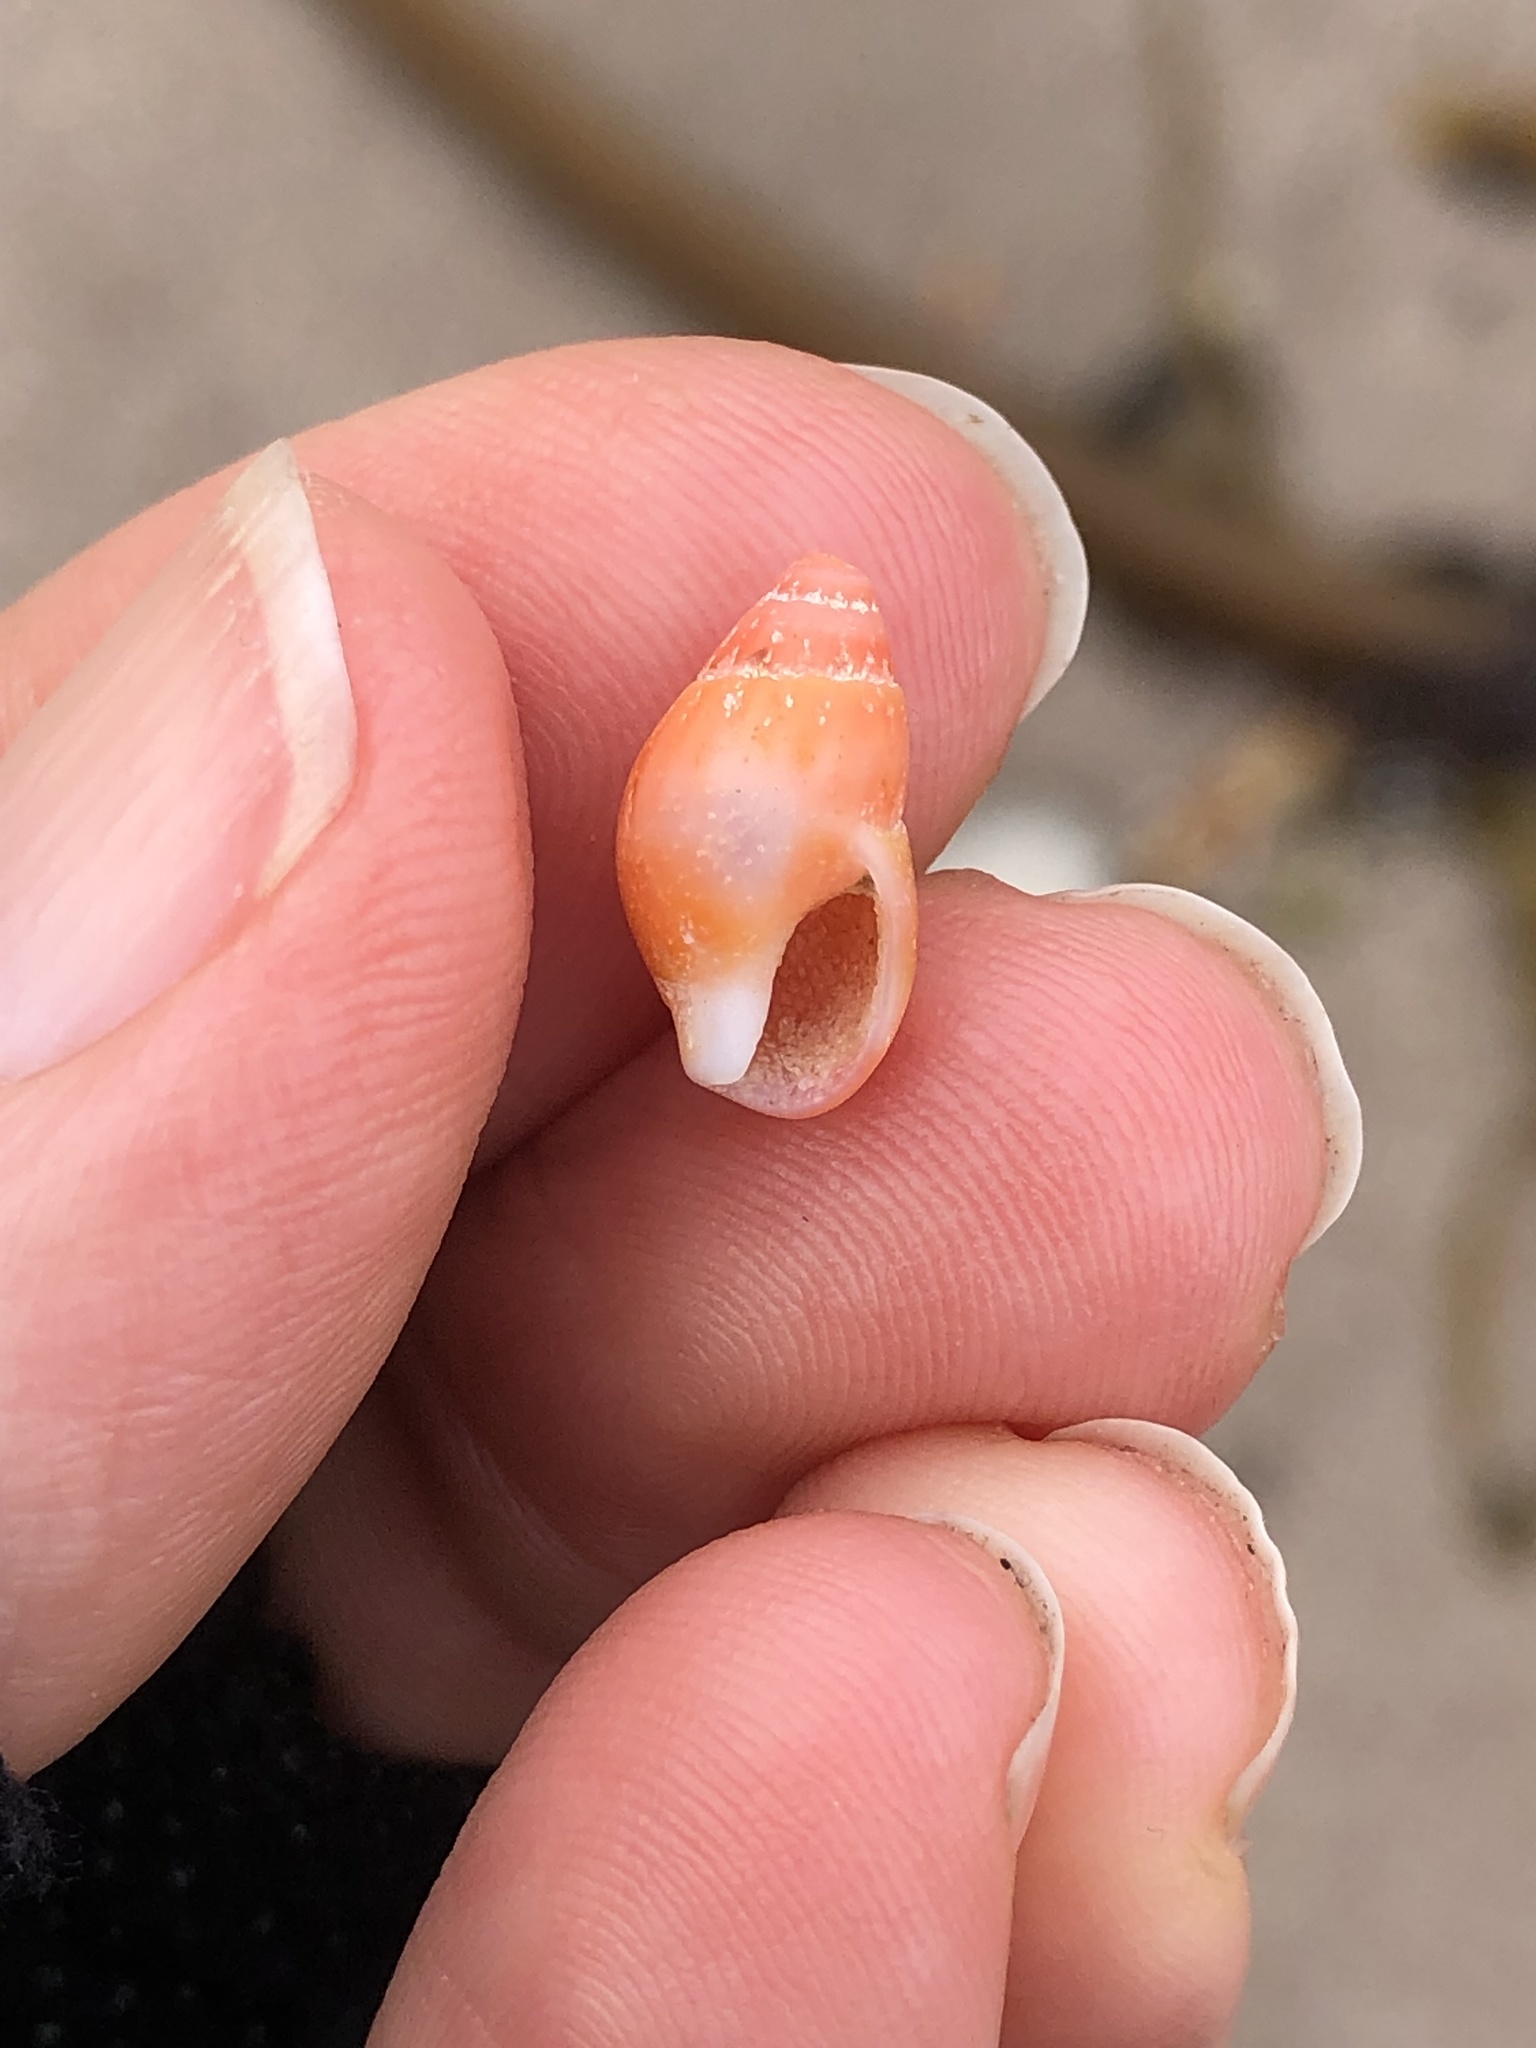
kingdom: Animalia
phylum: Mollusca
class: Gastropoda
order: Neogastropoda
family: Columbellidae
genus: Amphissa
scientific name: Amphissa versicolor
